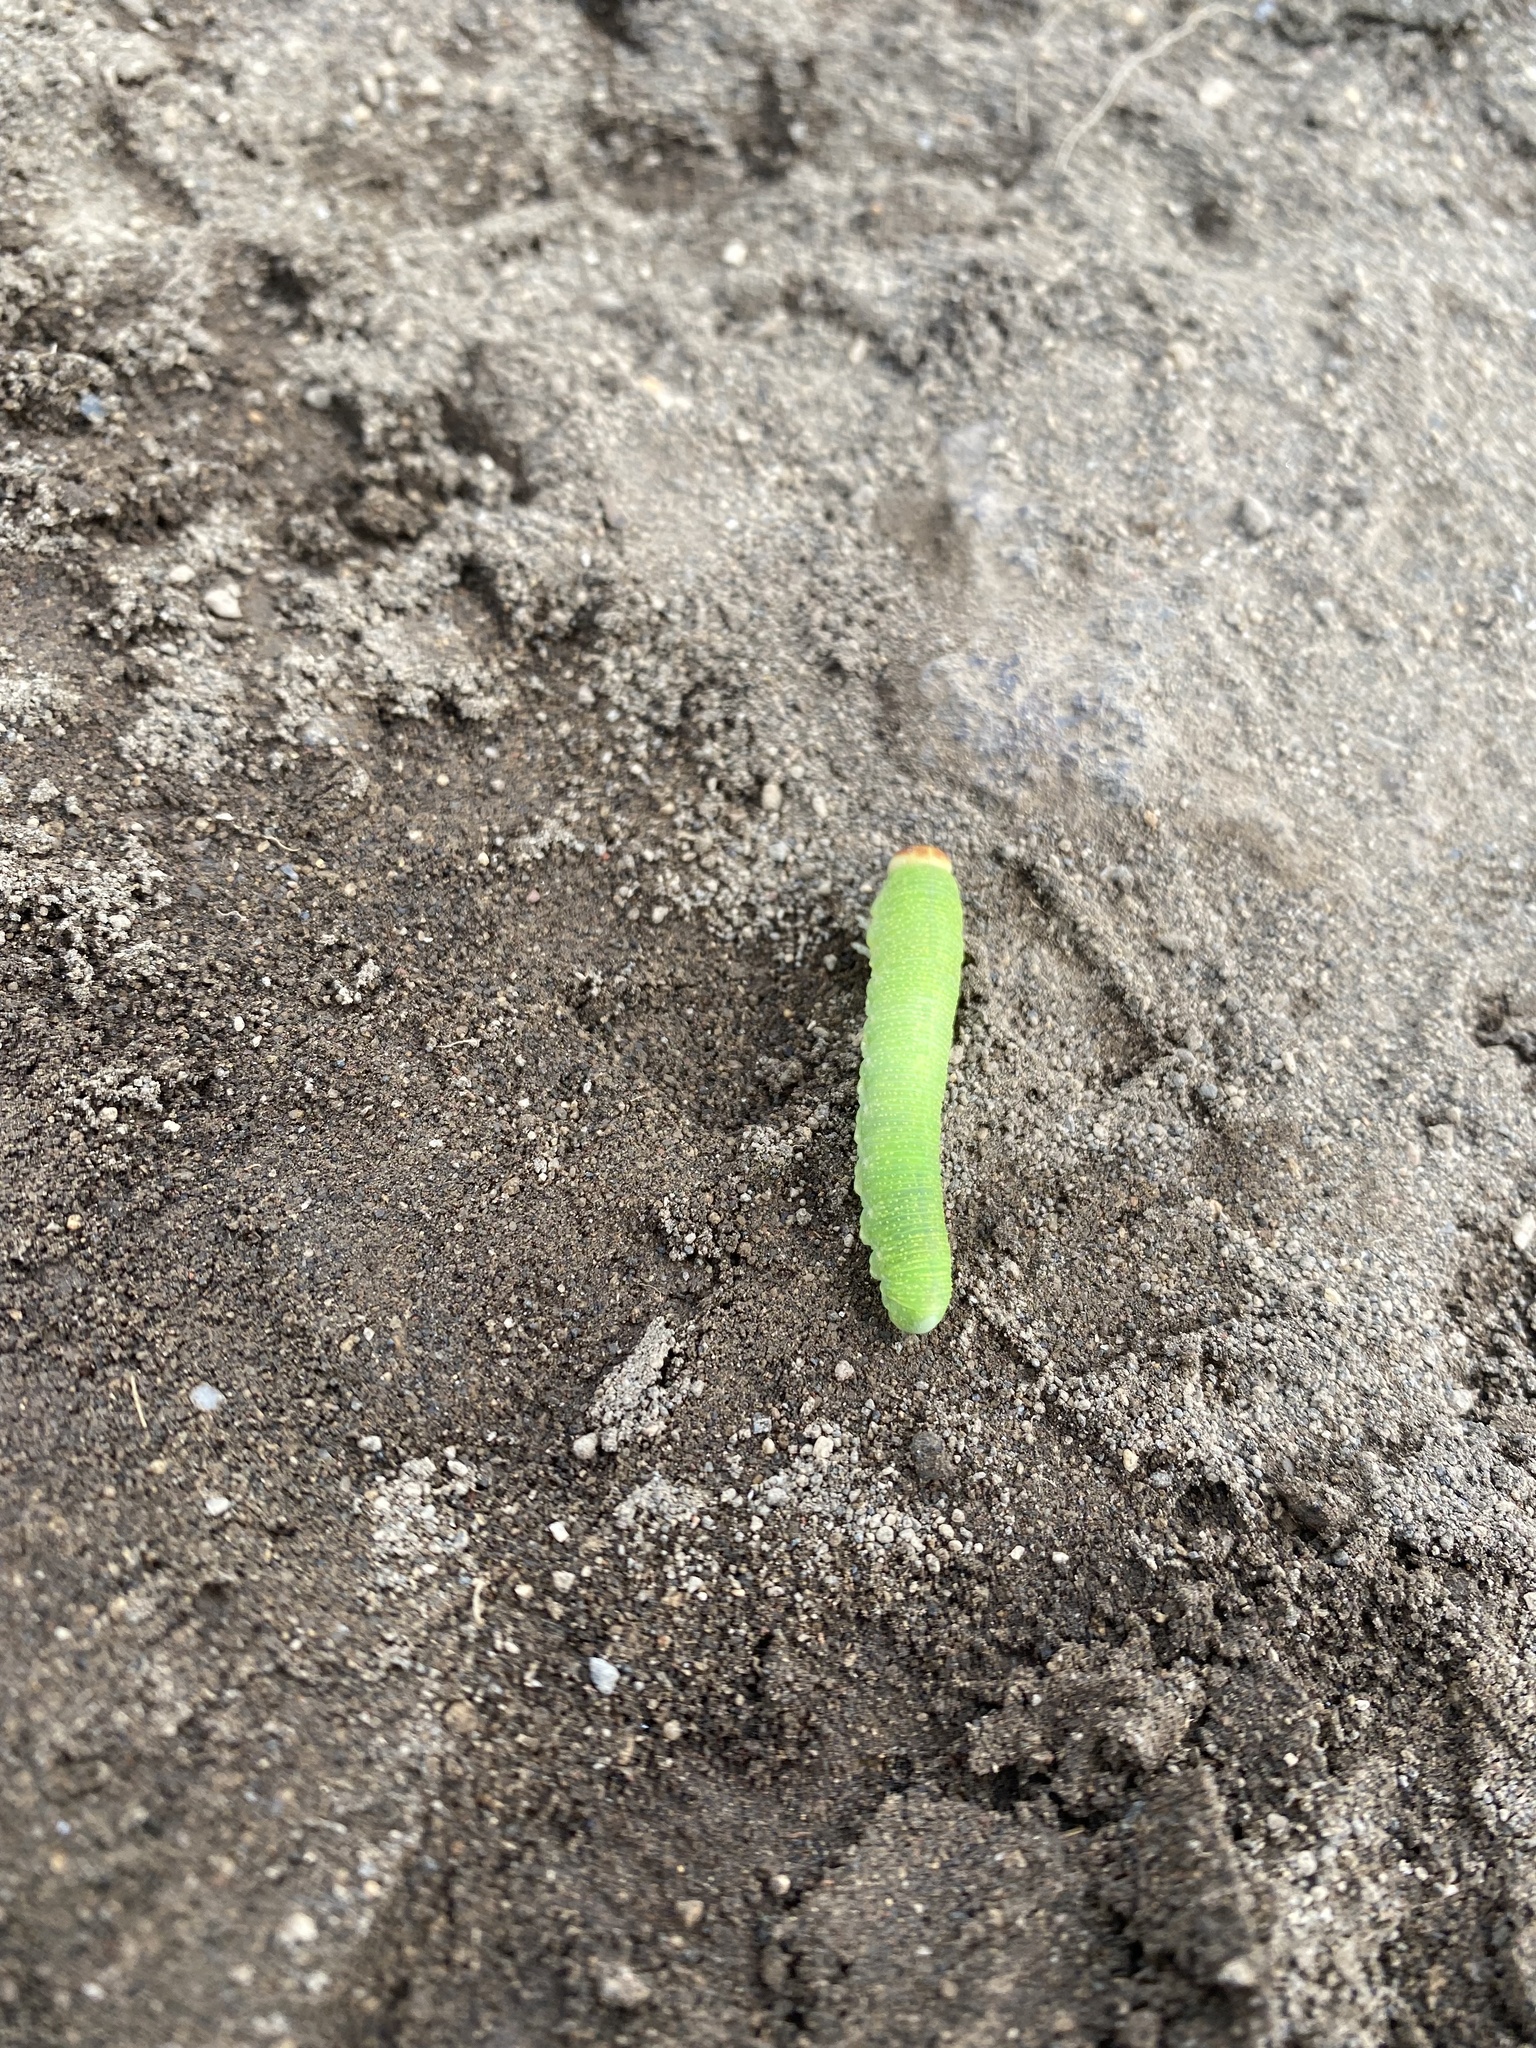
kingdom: Animalia
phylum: Arthropoda
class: Insecta
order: Hymenoptera
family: Cimbicidae
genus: Trichiosoma
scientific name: Trichiosoma
